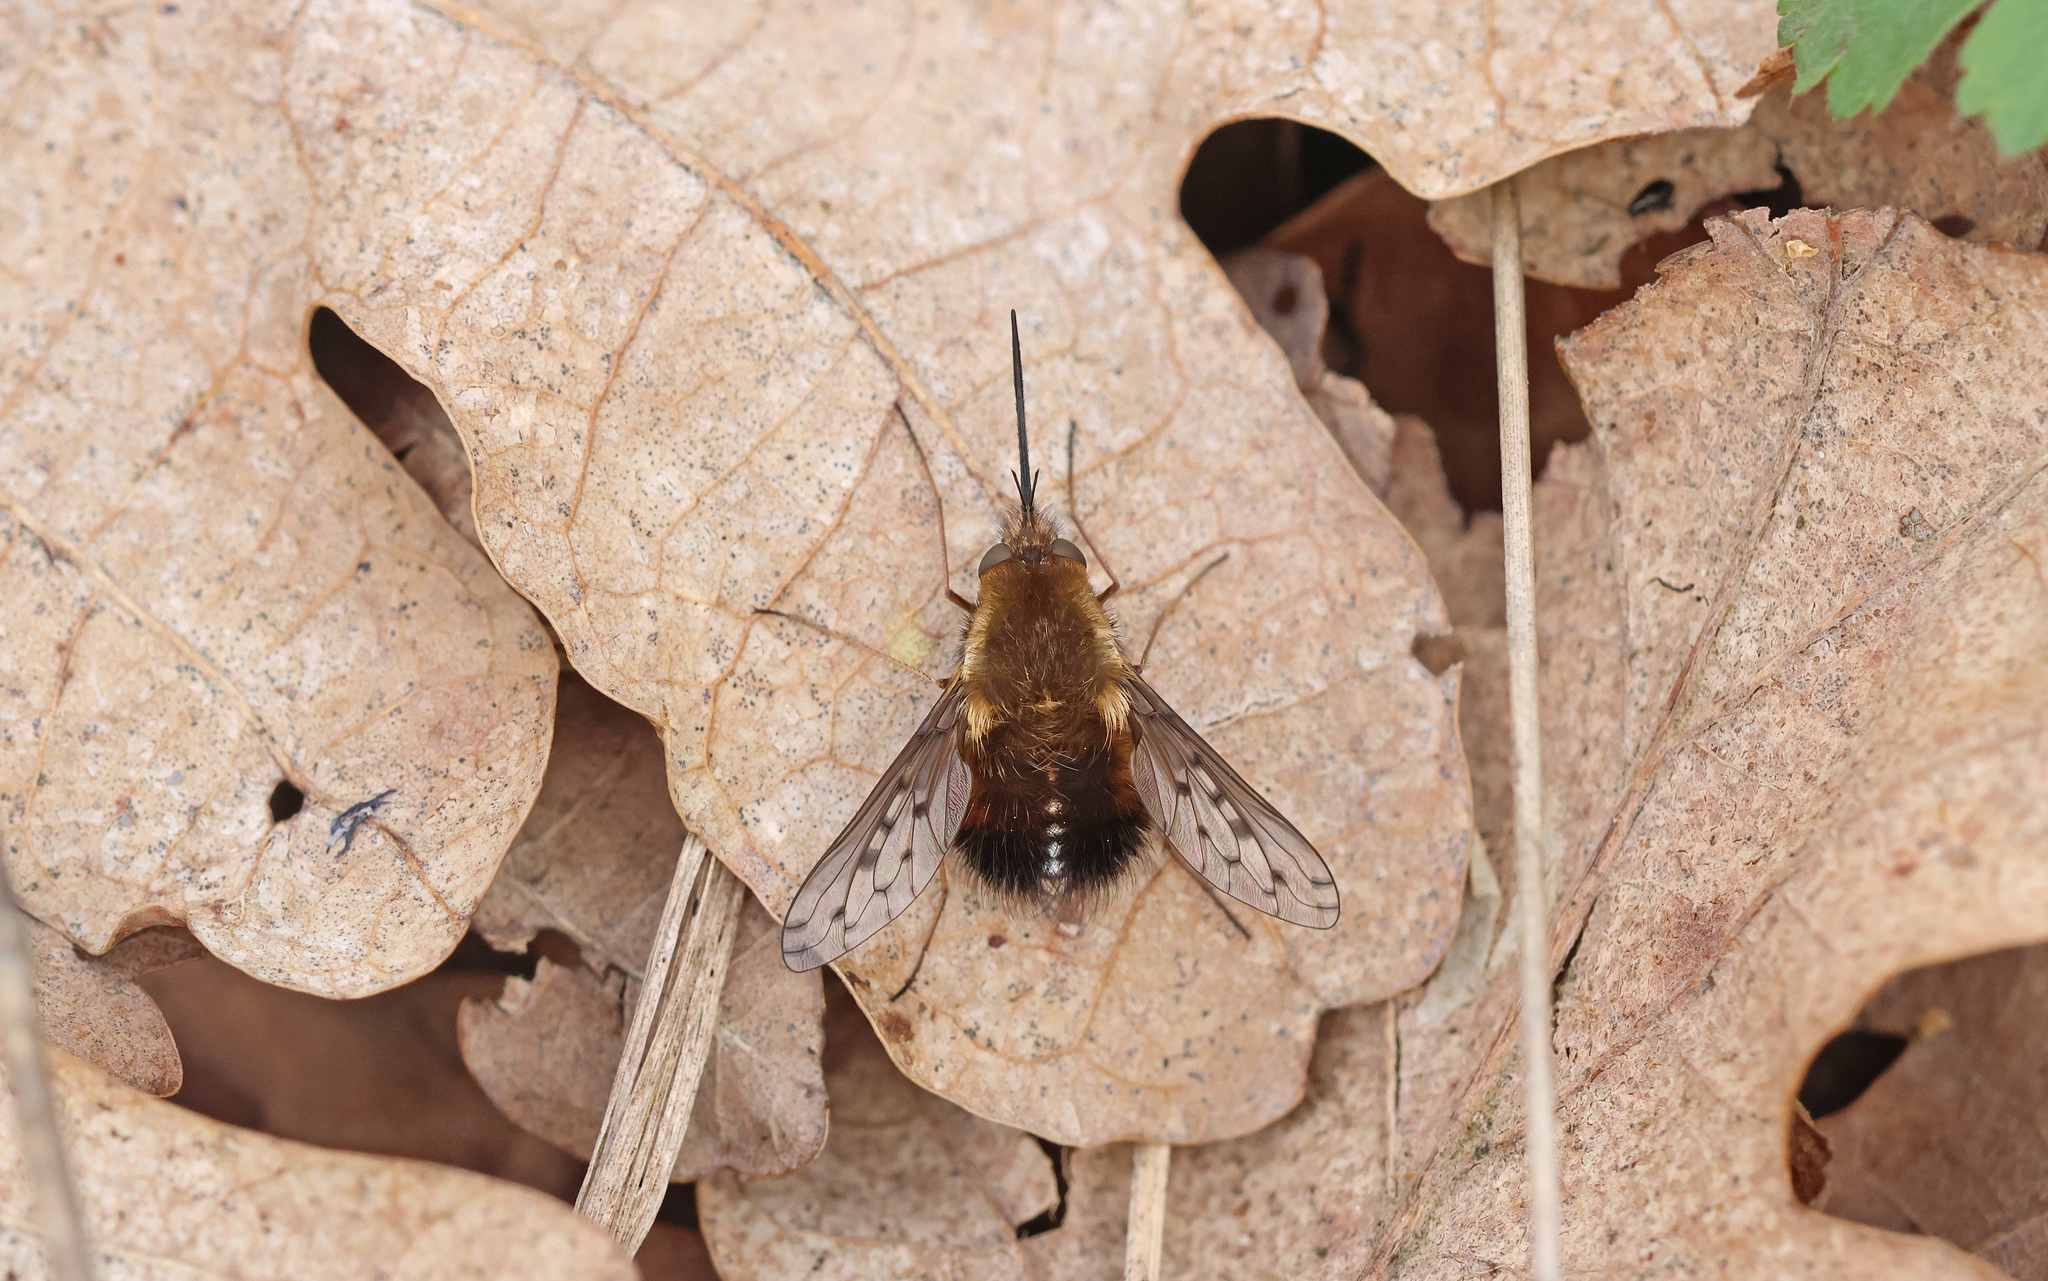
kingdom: Animalia
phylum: Arthropoda
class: Insecta
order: Diptera
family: Bombyliidae
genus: Bombylius
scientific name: Bombylius discolor
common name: Dotted bee-fly
